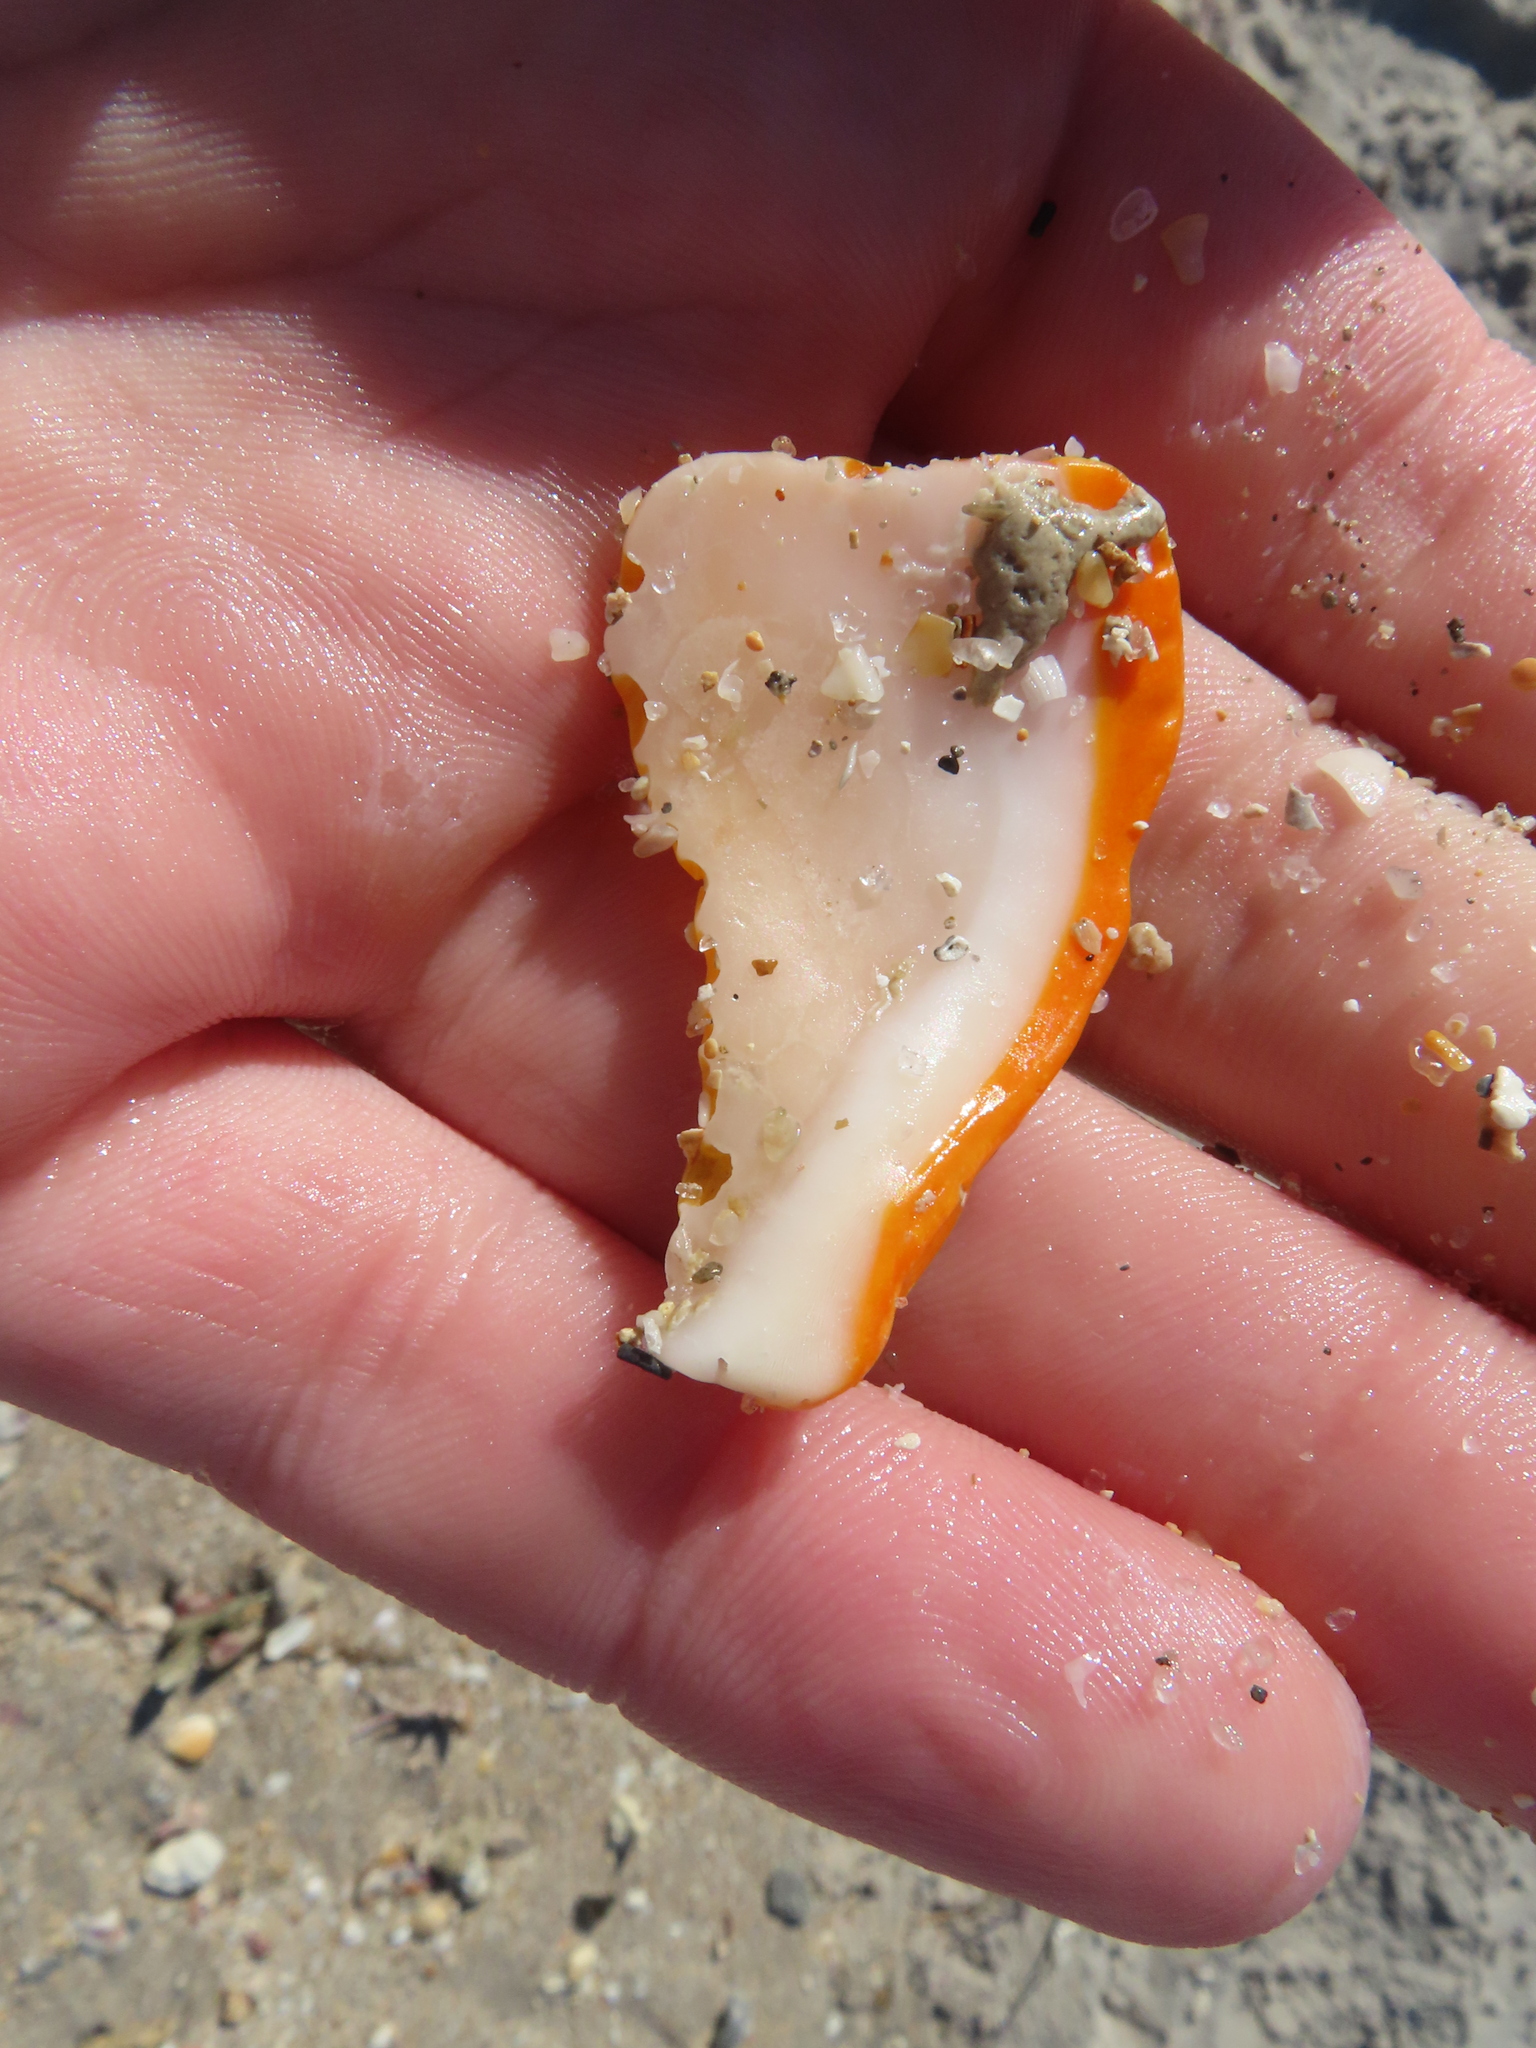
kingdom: Animalia
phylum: Mollusca
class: Bivalvia
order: Pectinida
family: Spondylidae
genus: Spondylus
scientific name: Spondylus tenuis
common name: Digitate thorny oyster
